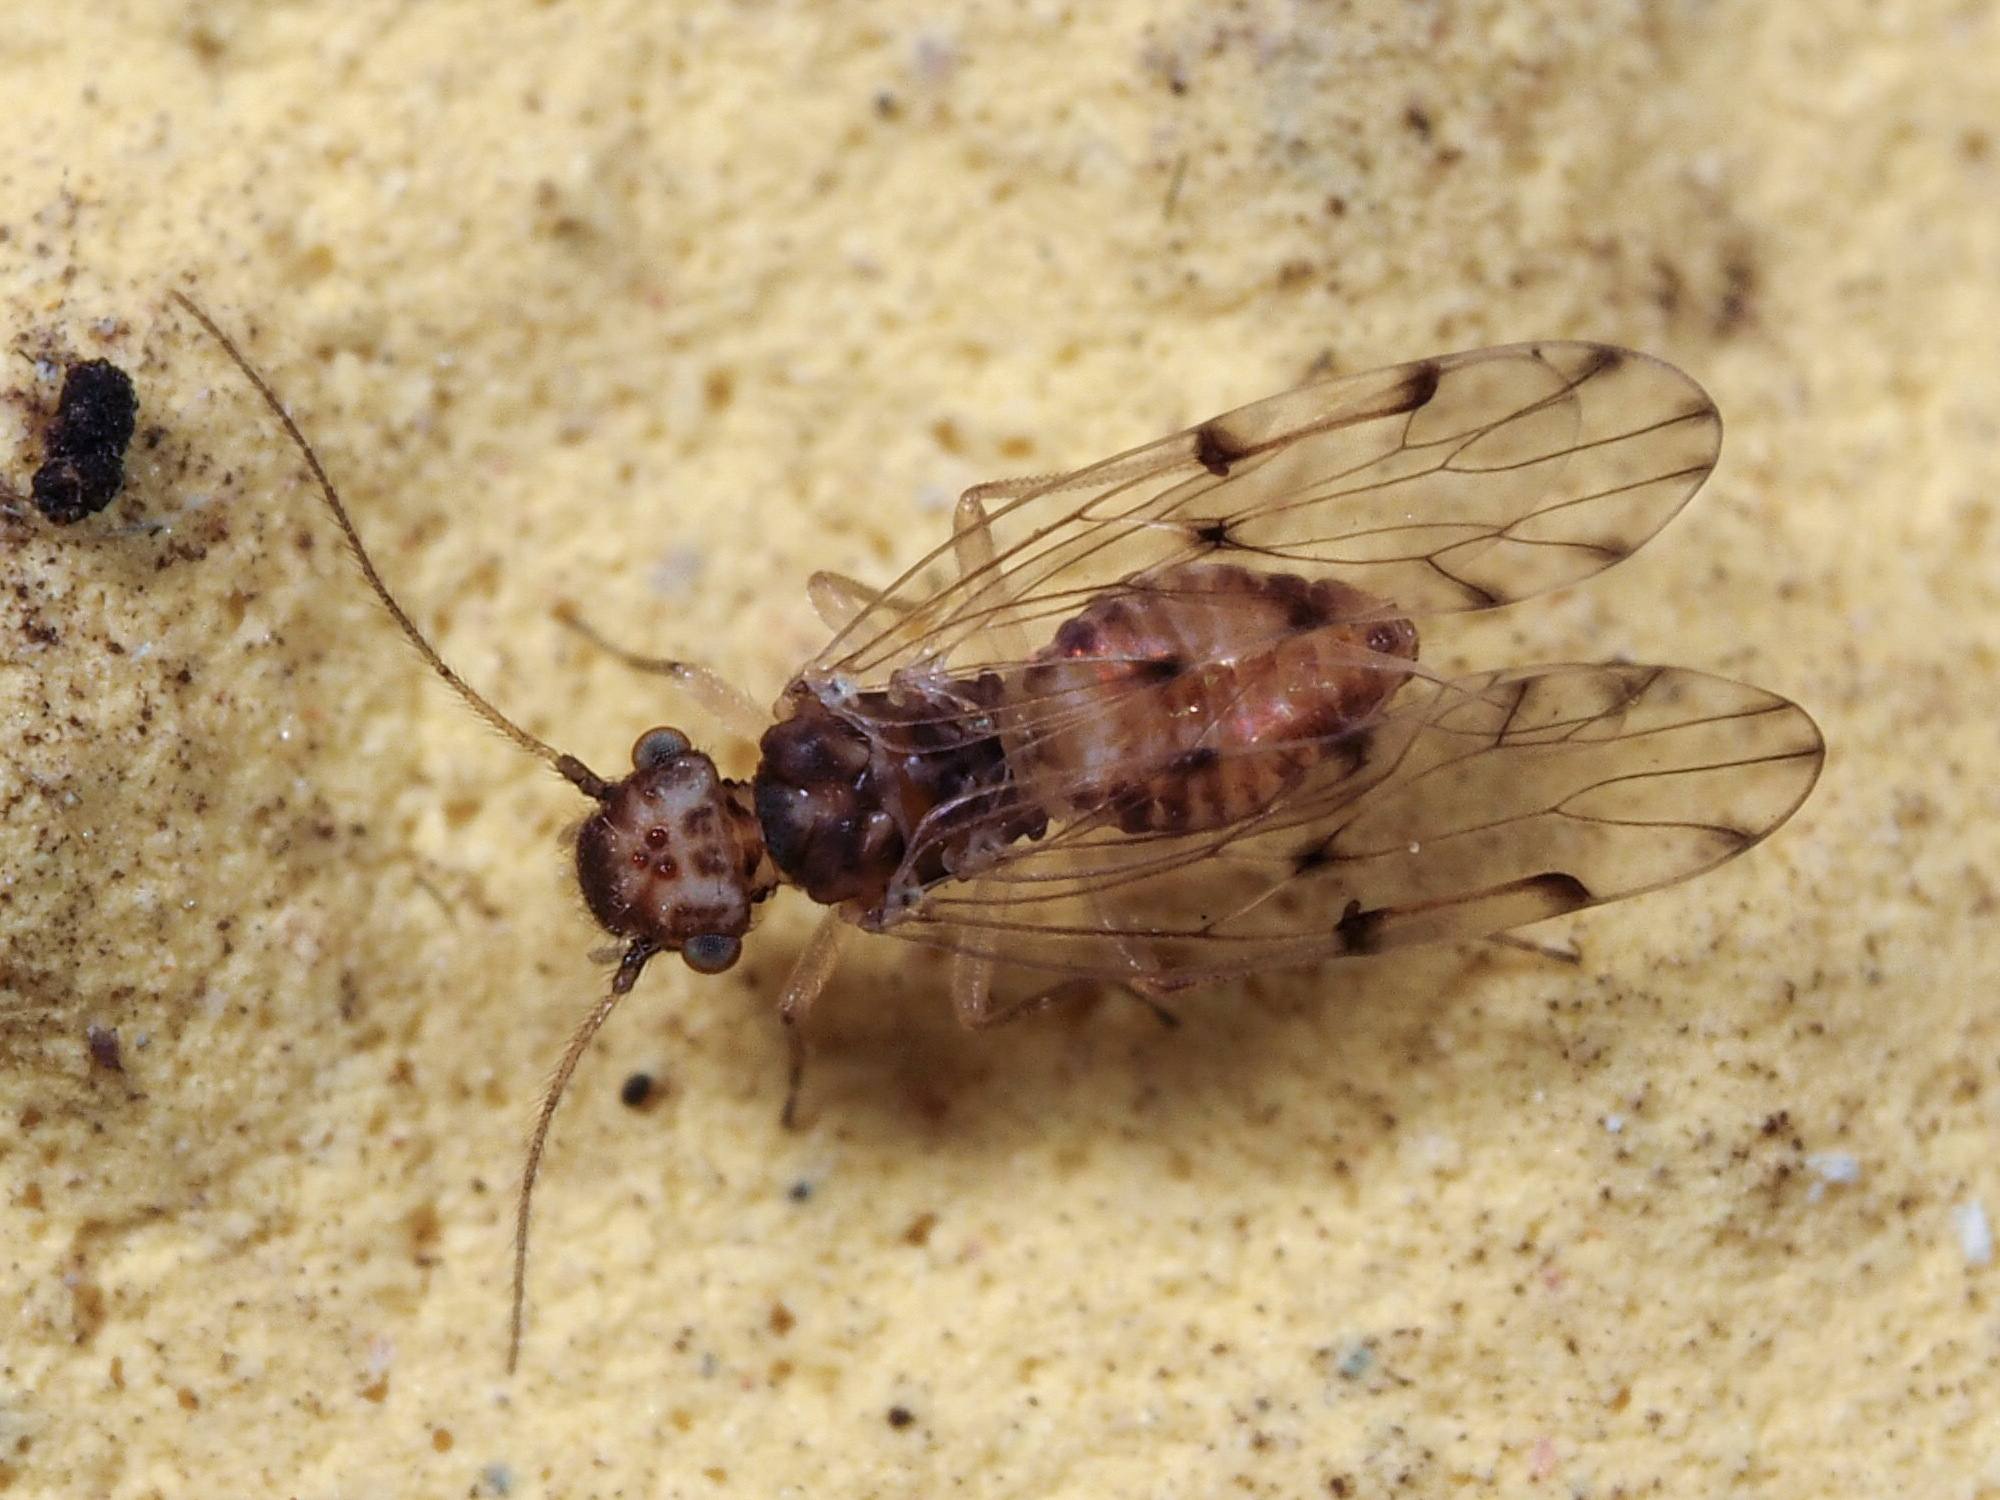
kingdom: Animalia
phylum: Arthropoda
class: Insecta
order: Psocodea
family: Ectopsocidae
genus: Ectopsocus
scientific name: Ectopsocus petersi
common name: Medium-sized bark louse
